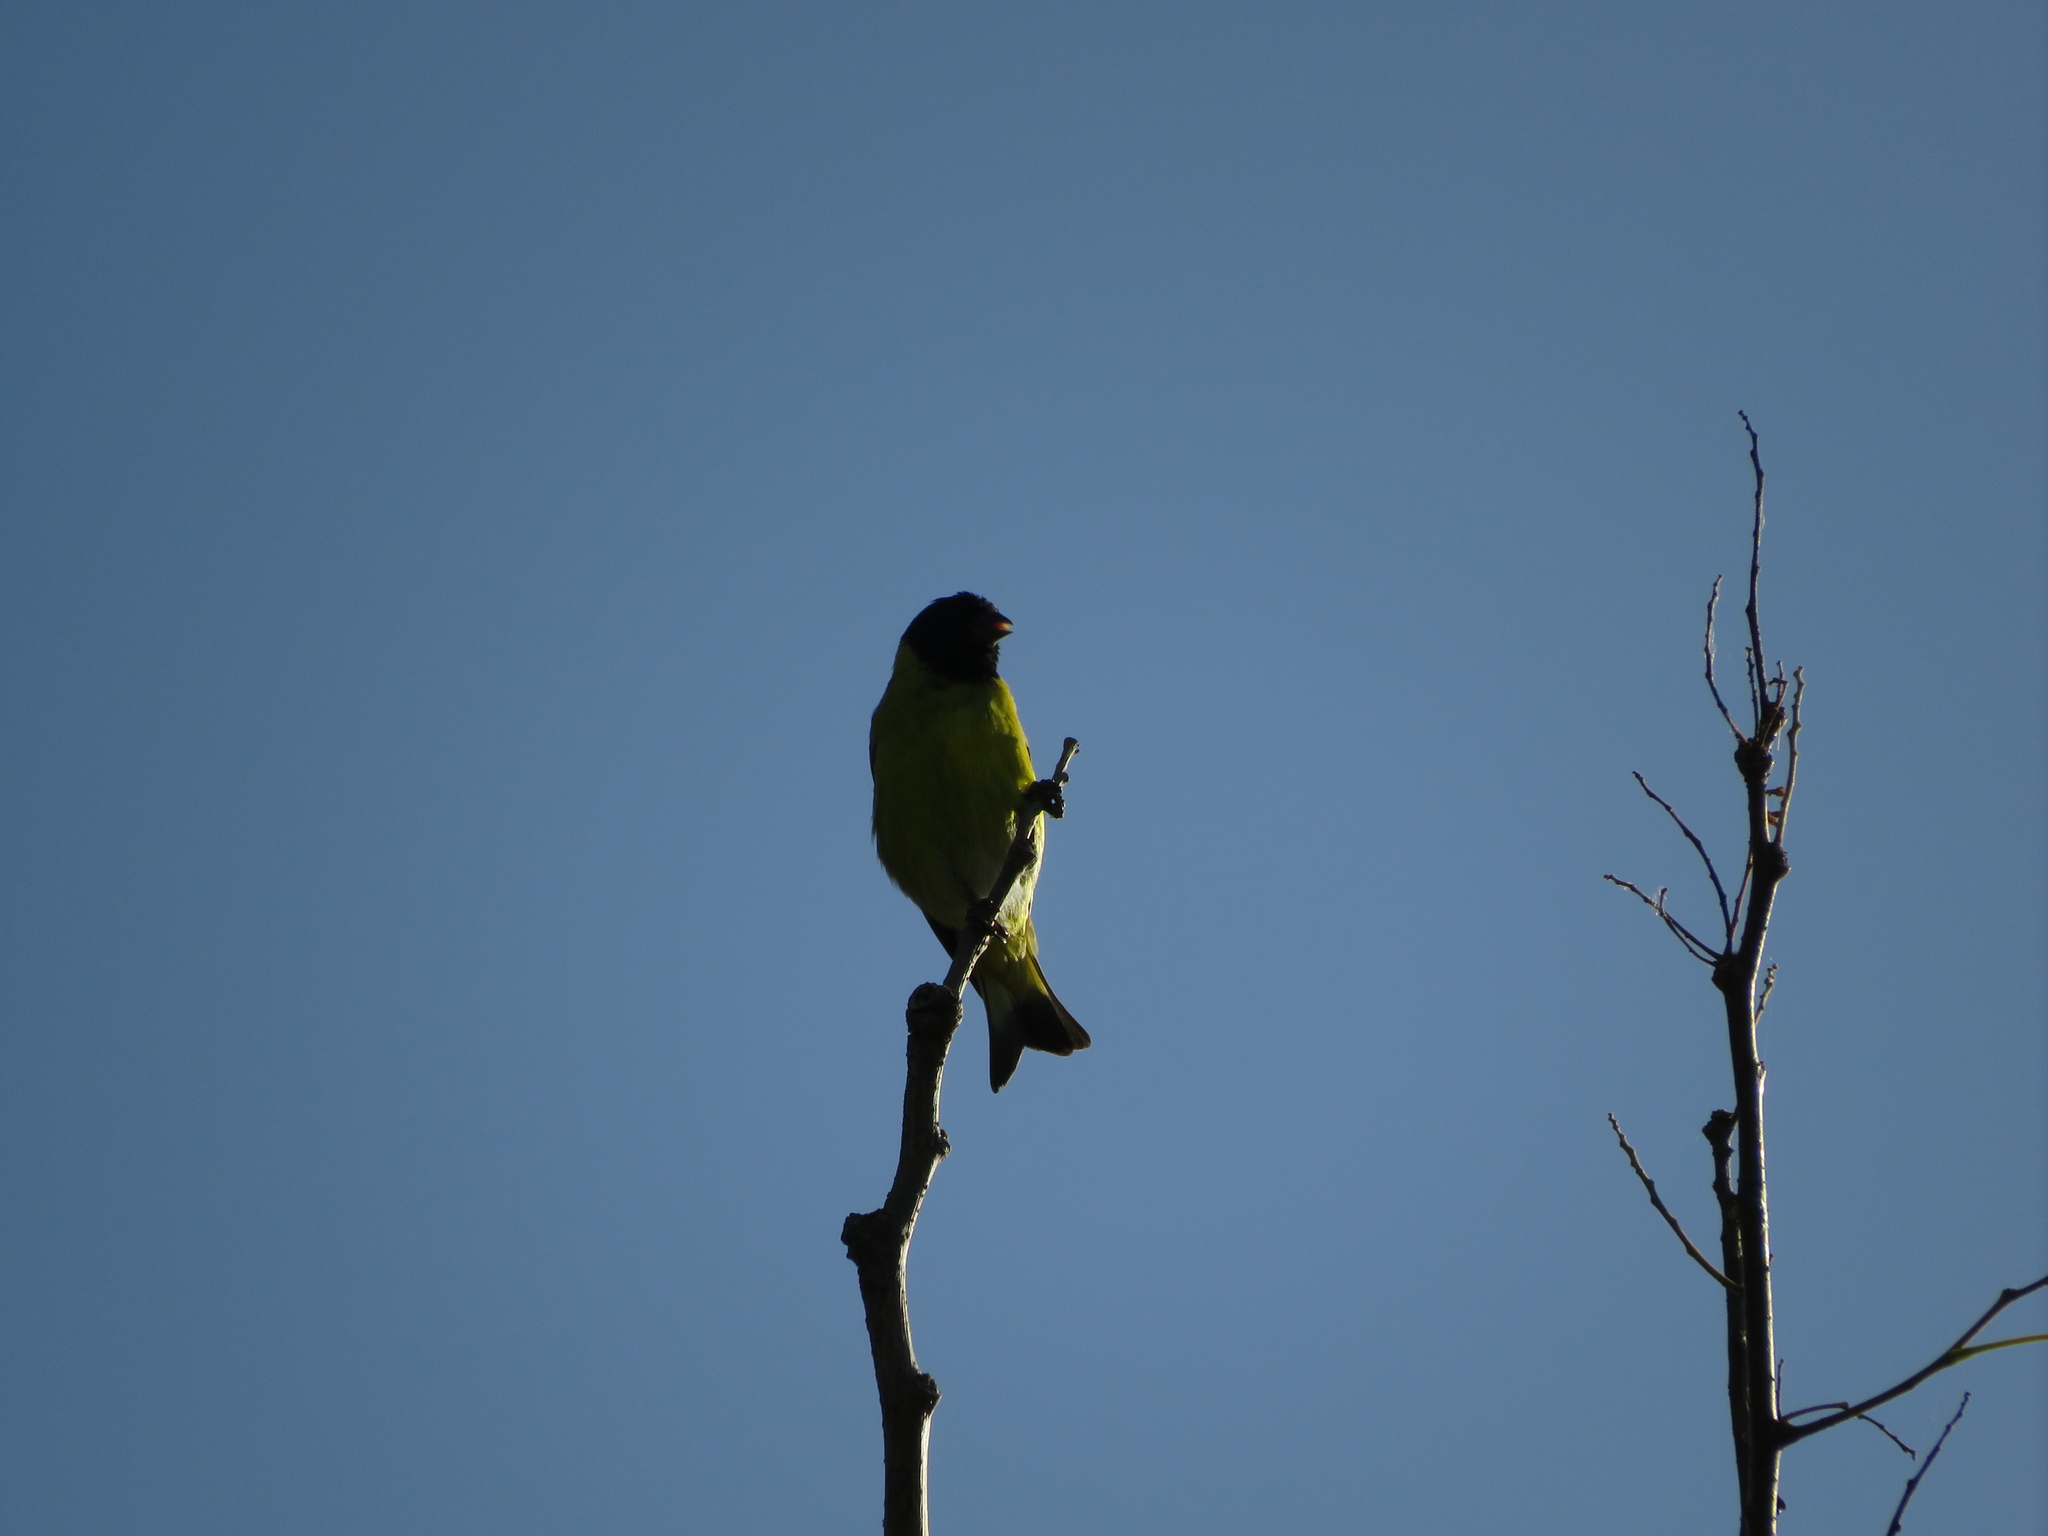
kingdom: Animalia
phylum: Chordata
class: Aves
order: Passeriformes
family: Fringillidae
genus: Spinus
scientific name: Spinus magellanicus
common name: Hooded siskin
